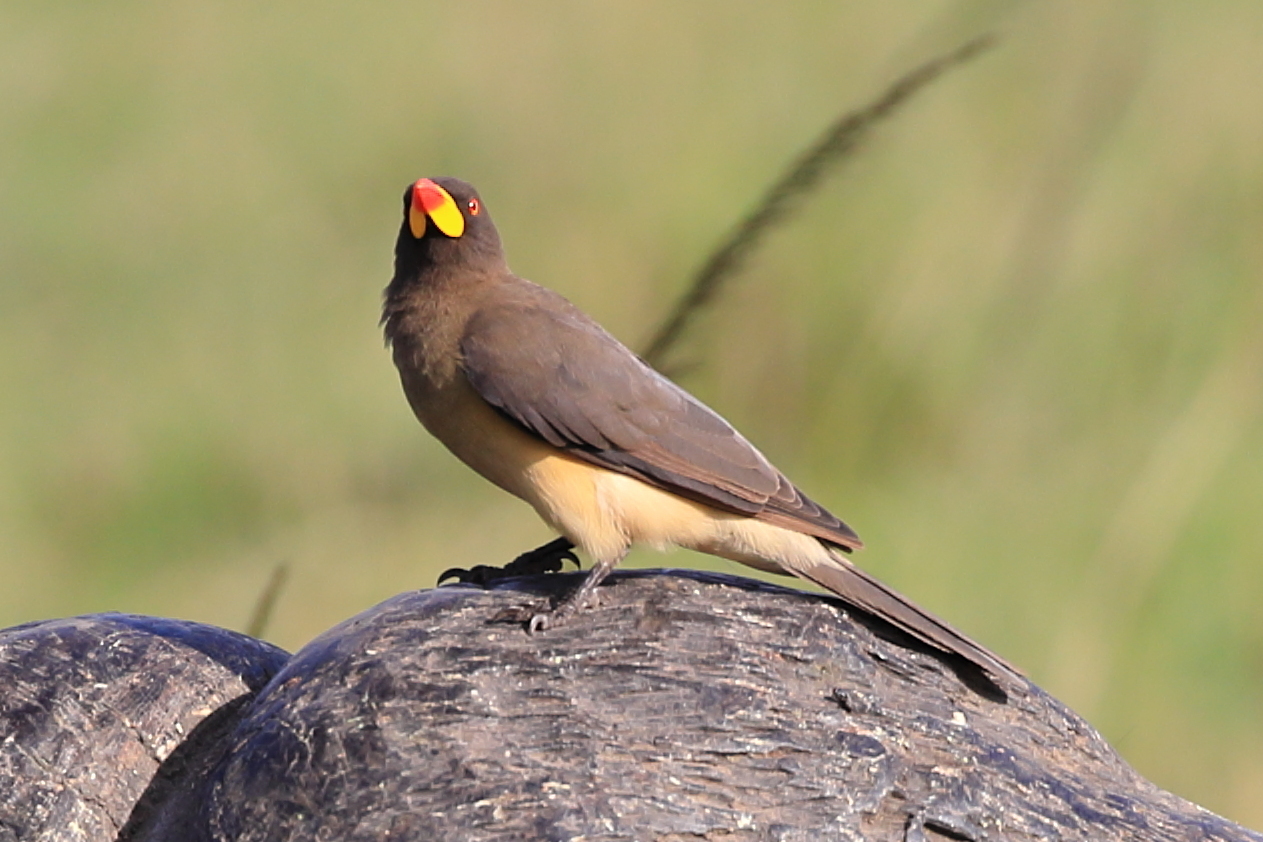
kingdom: Animalia
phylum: Chordata
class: Aves
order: Passeriformes
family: Buphagidae
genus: Buphagus
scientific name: Buphagus africanus
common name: Yellow-billed oxpecker
